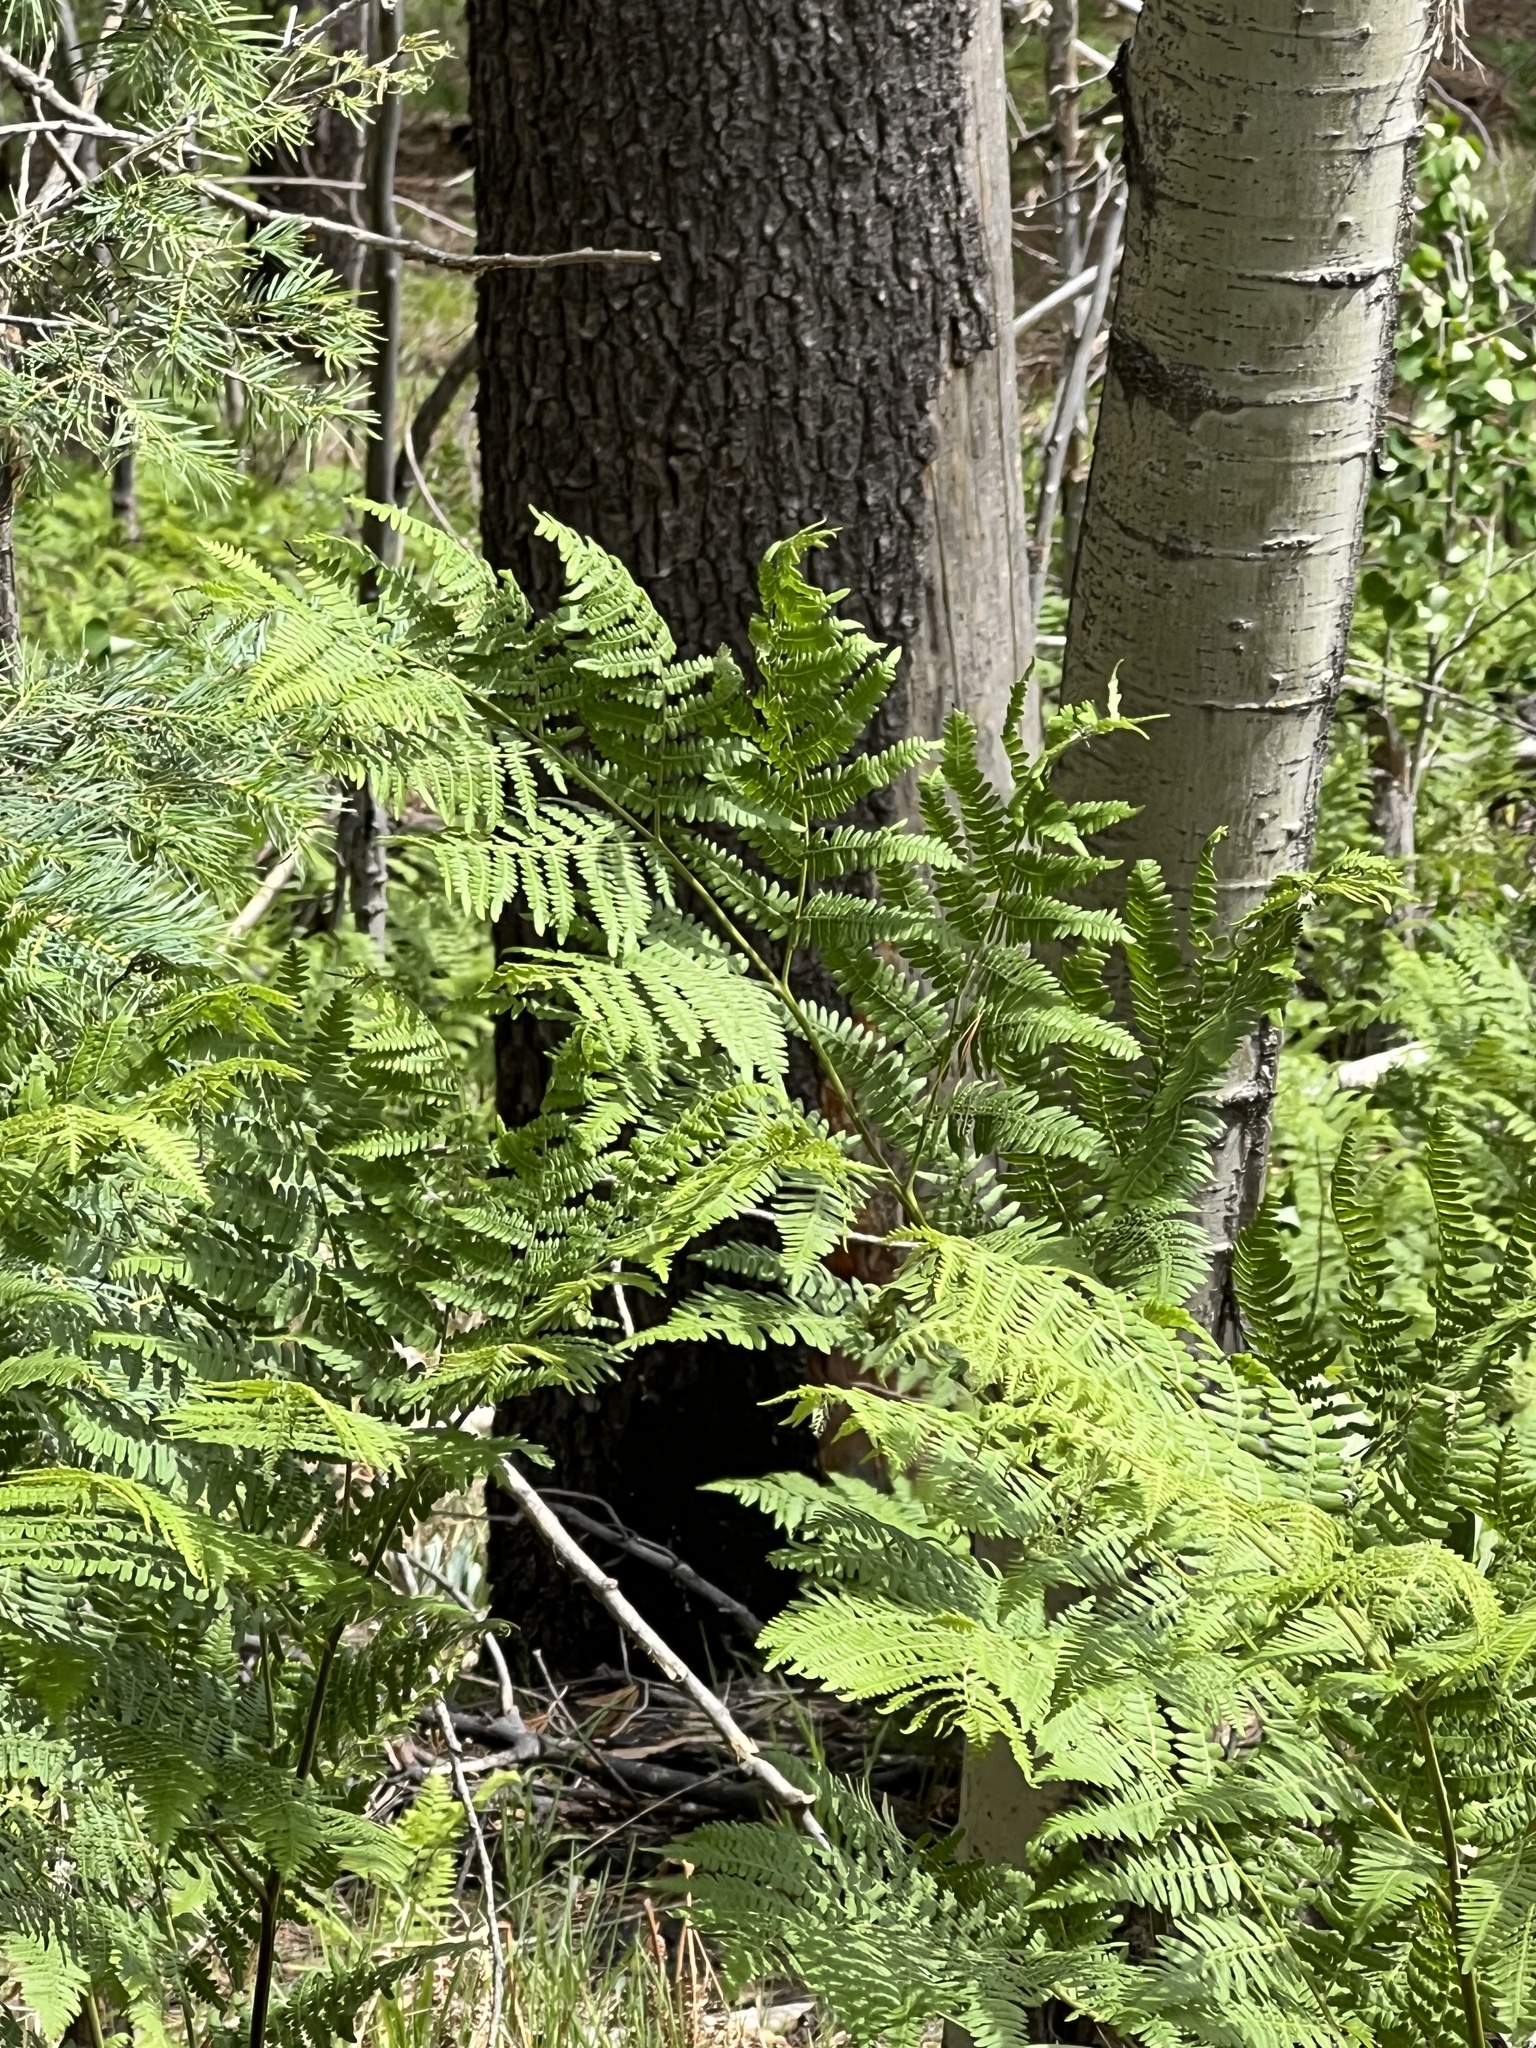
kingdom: Plantae
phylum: Tracheophyta
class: Polypodiopsida
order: Polypodiales
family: Dennstaedtiaceae
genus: Pteridium
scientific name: Pteridium aquilinum
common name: Bracken
